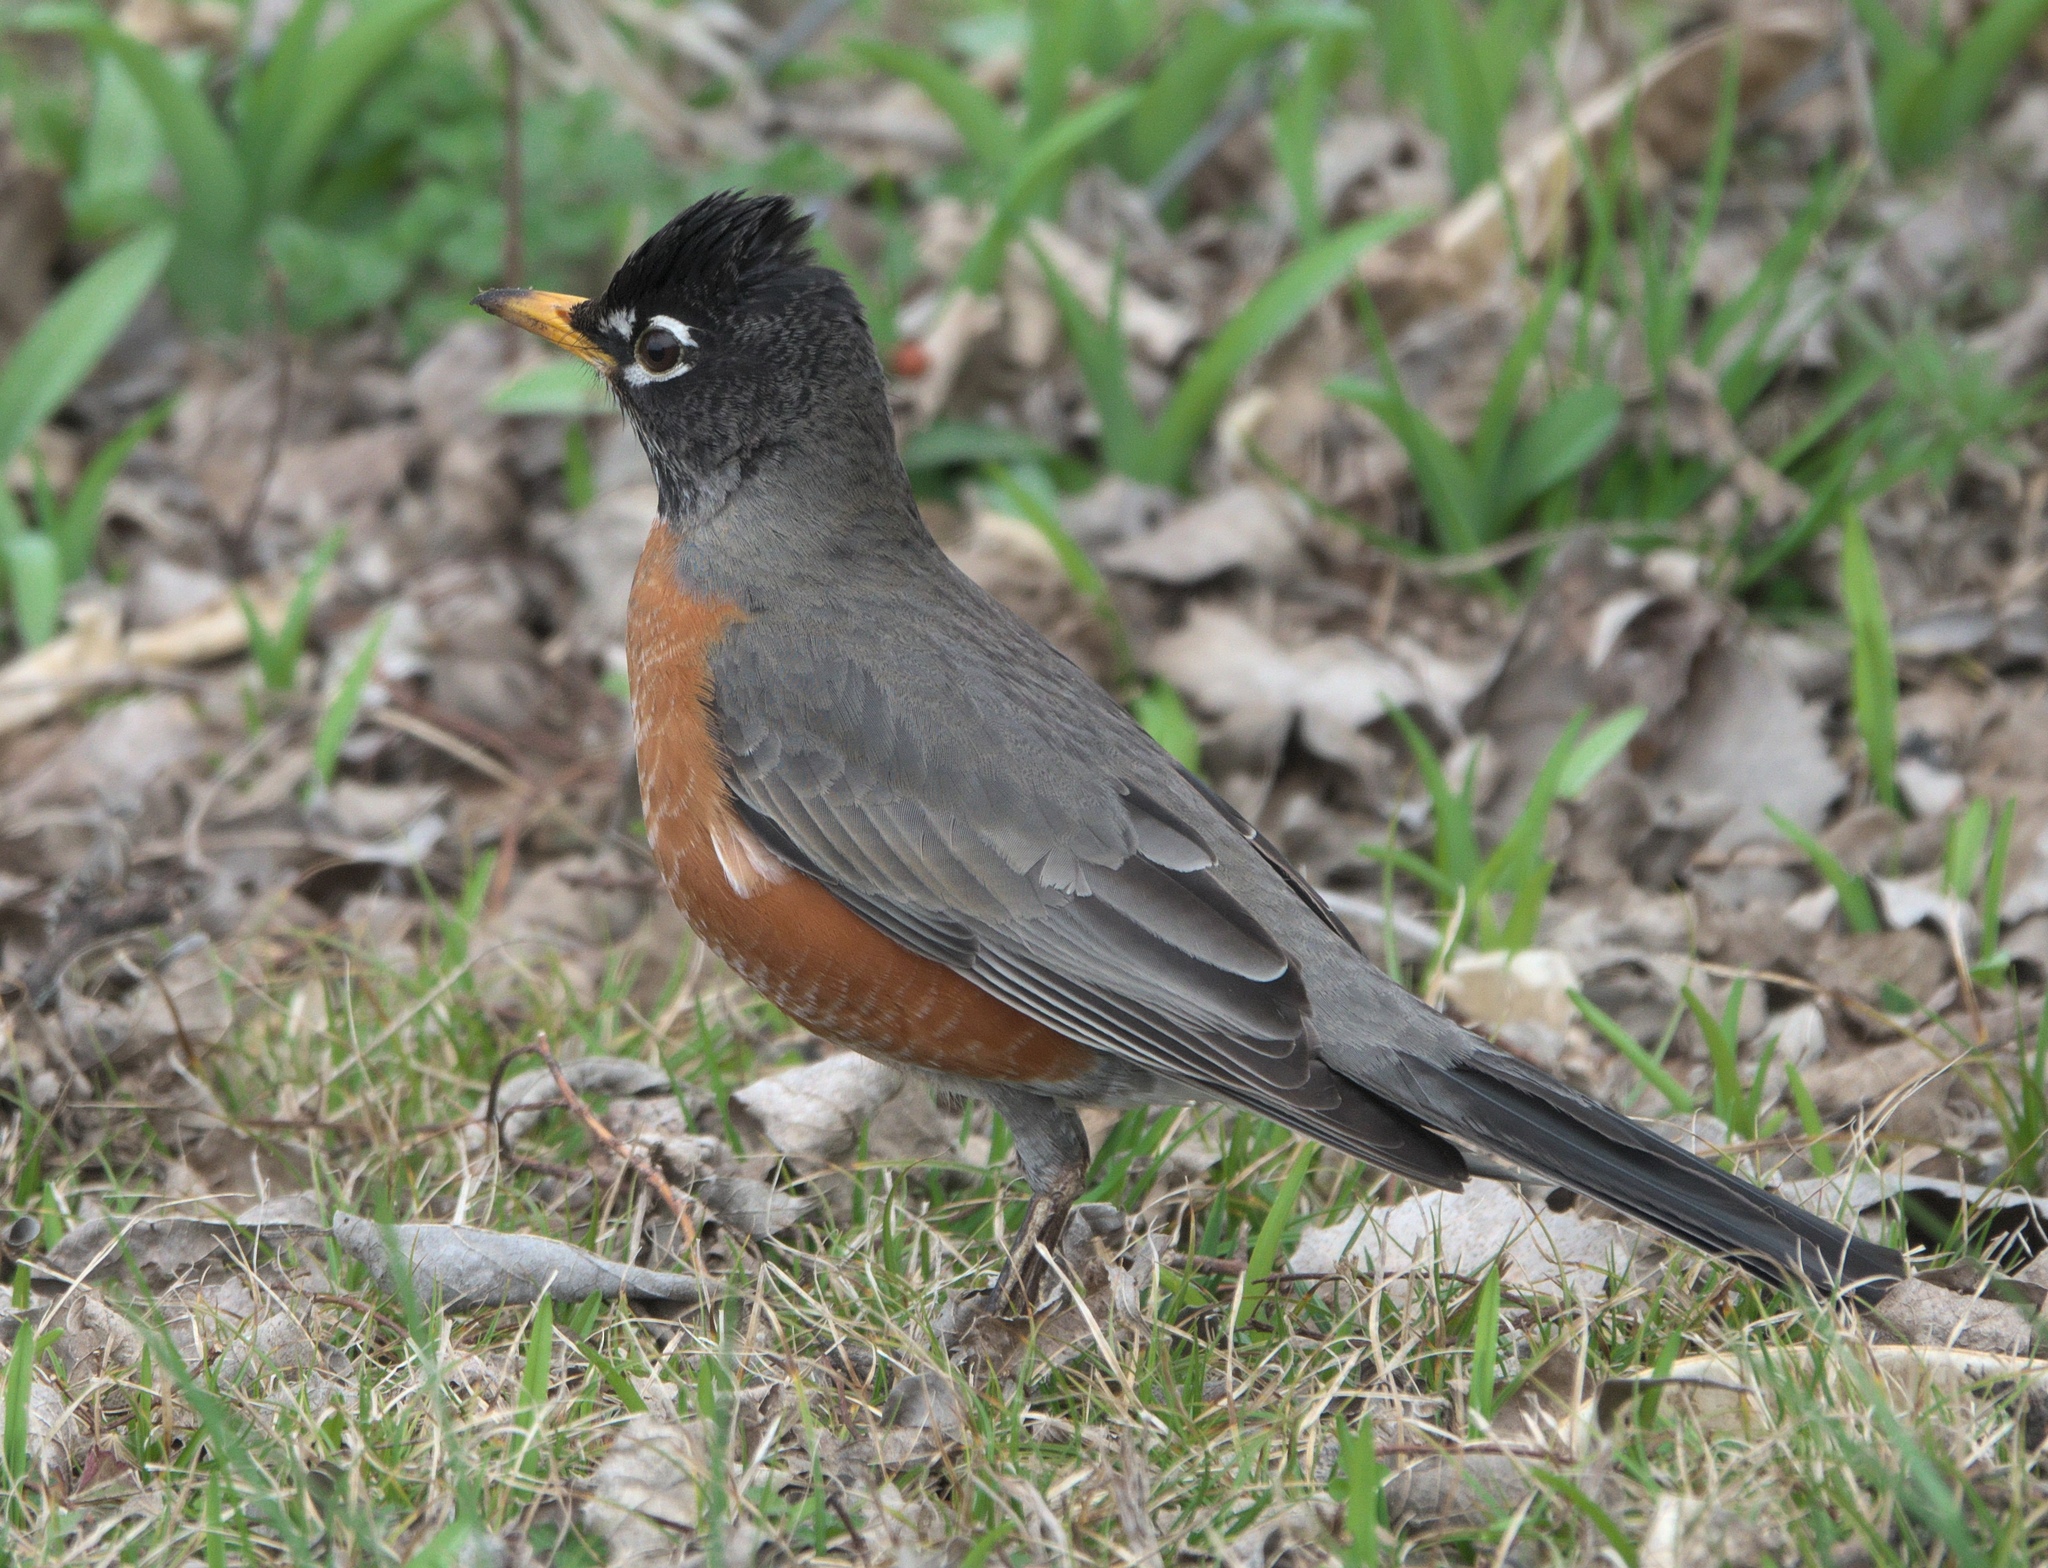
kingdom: Animalia
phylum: Chordata
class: Aves
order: Passeriformes
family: Turdidae
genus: Turdus
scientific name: Turdus migratorius
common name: American robin
